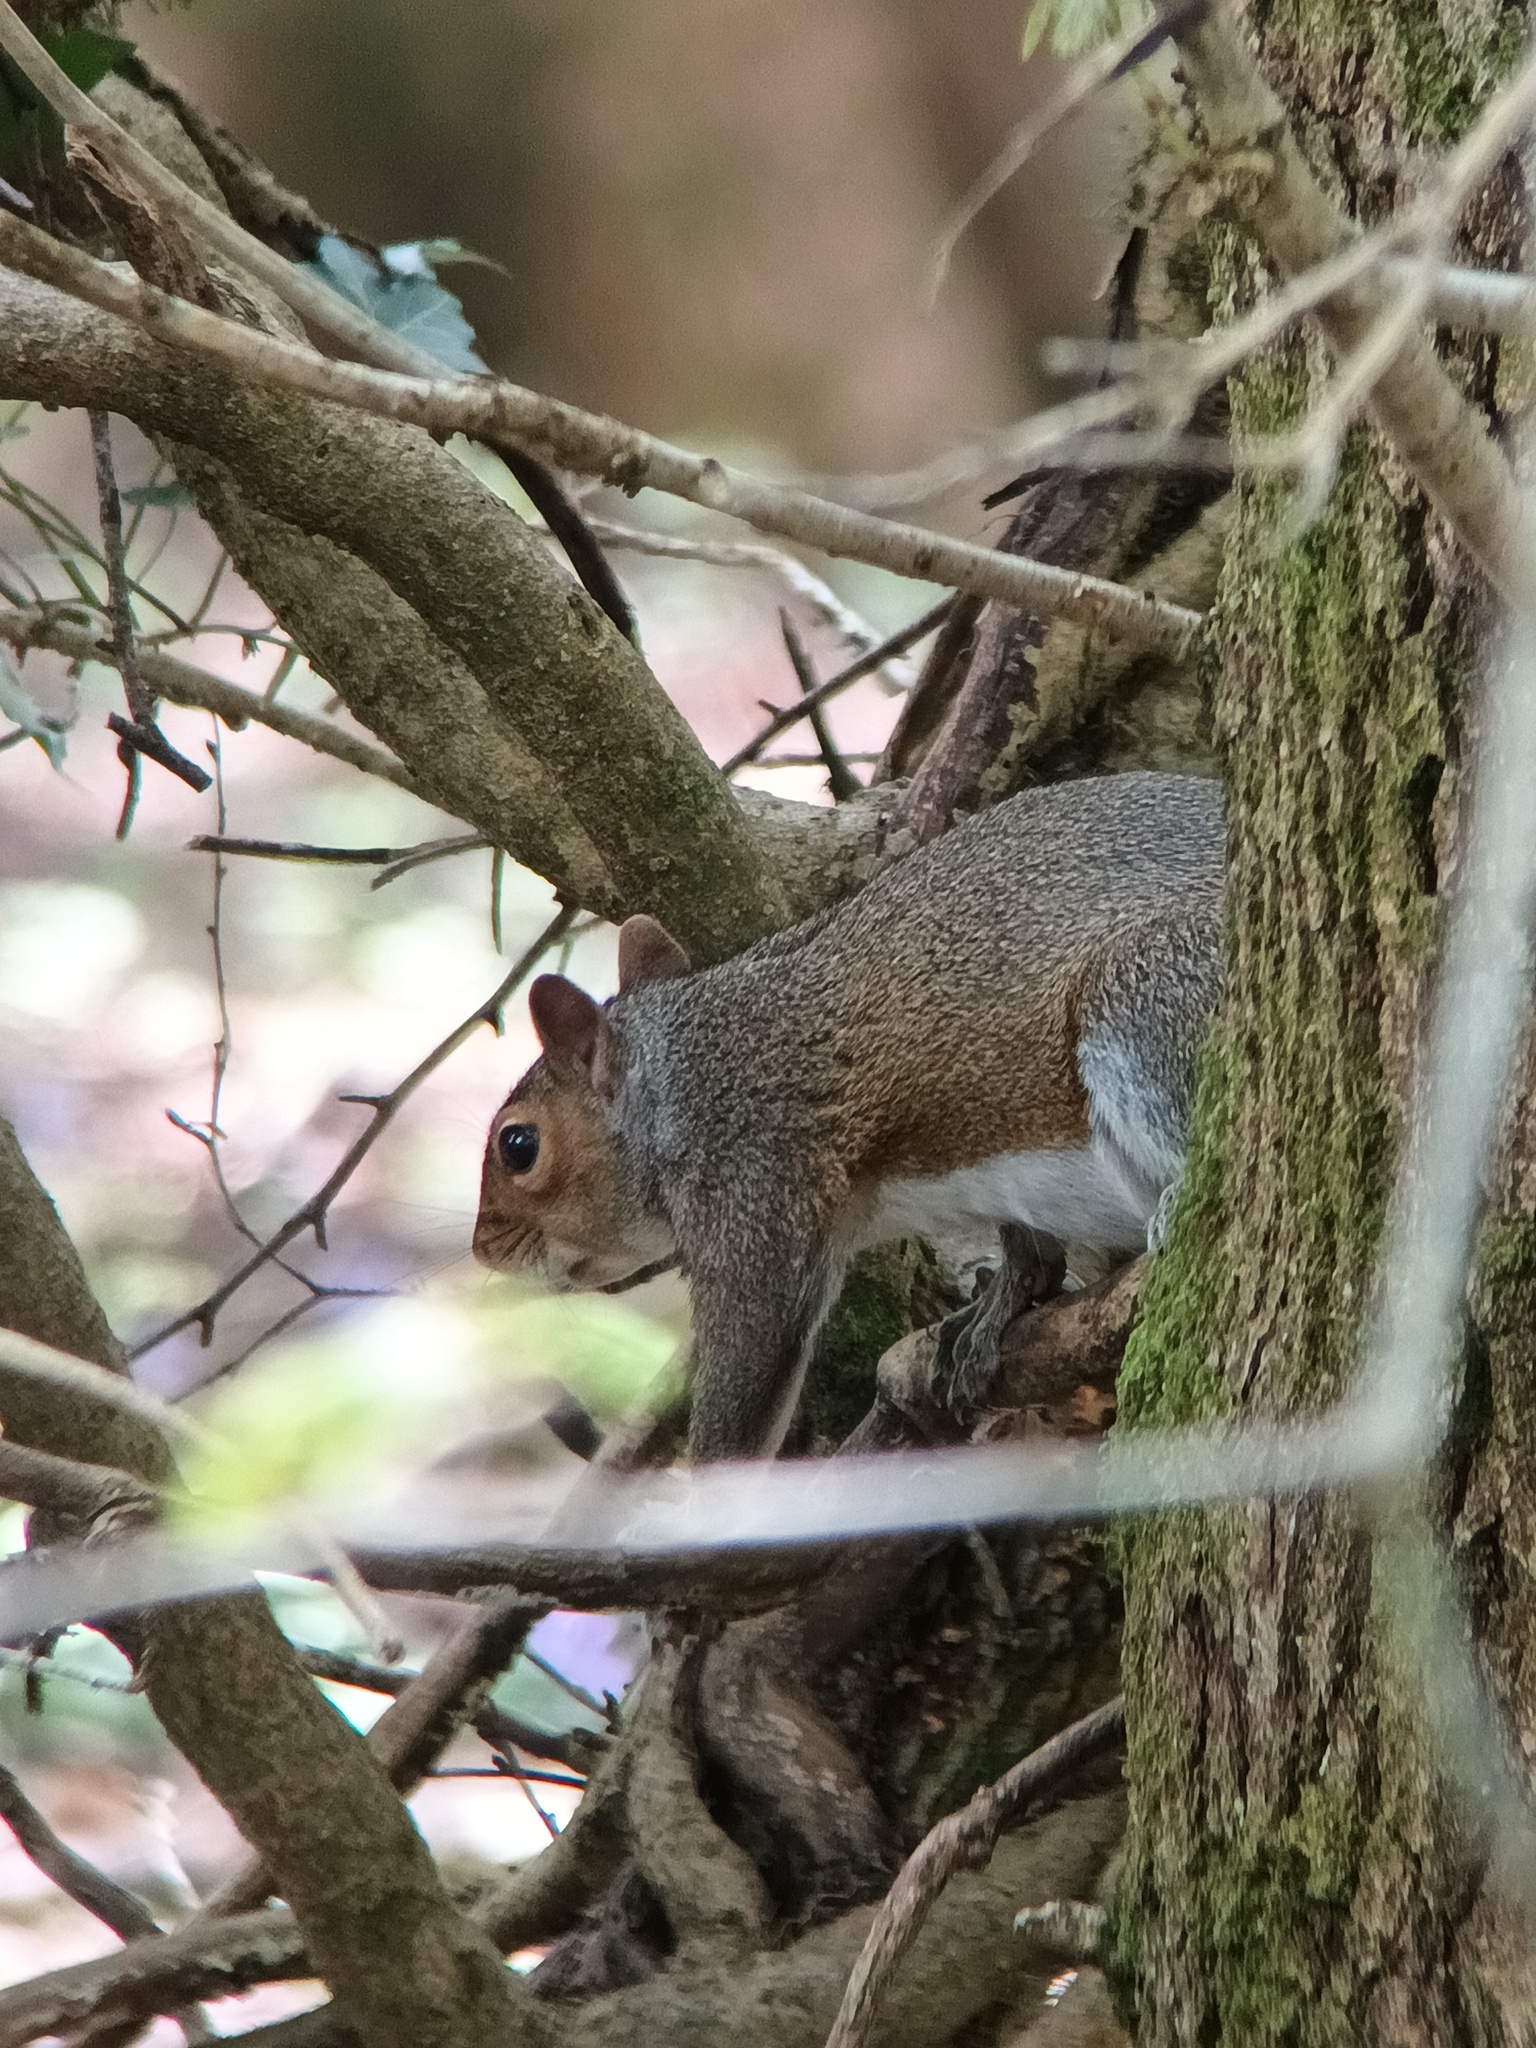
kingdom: Animalia
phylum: Chordata
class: Mammalia
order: Rodentia
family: Sciuridae
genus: Sciurus
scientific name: Sciurus carolinensis
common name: Eastern gray squirrel
